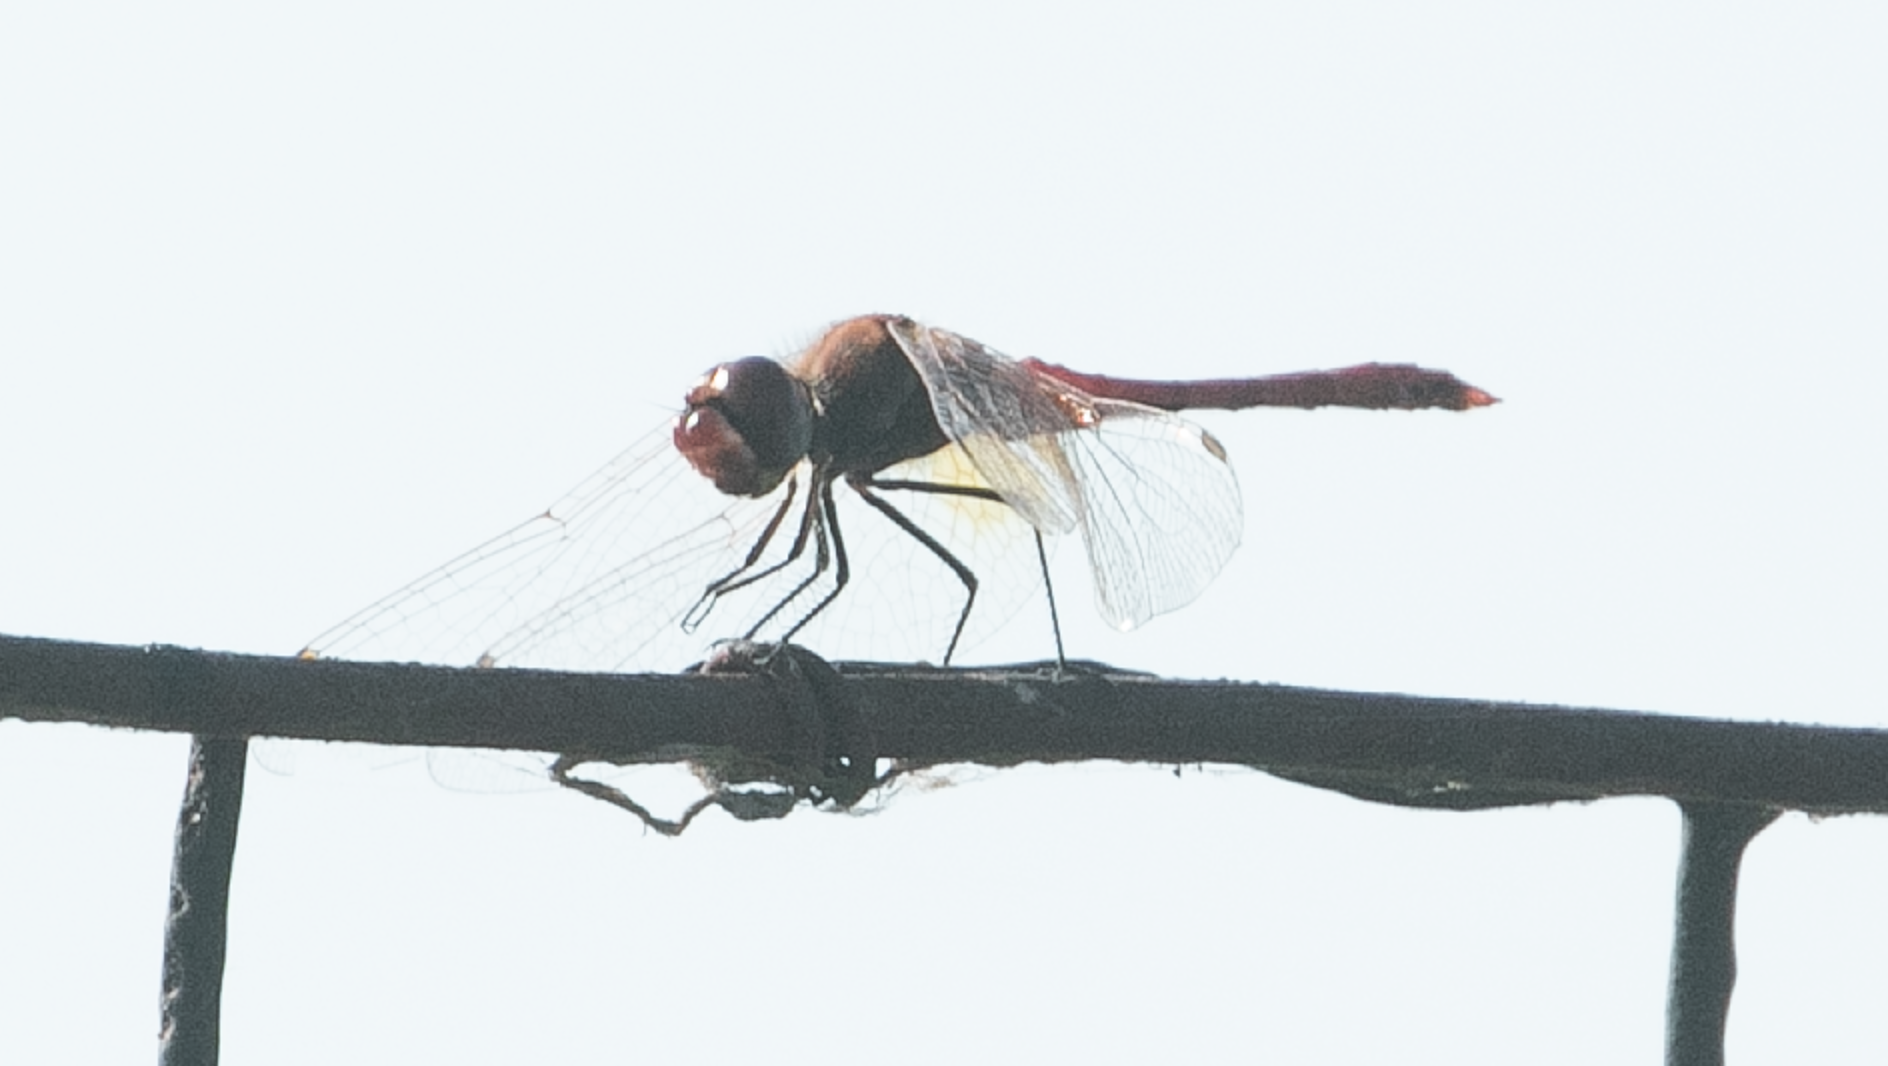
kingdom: Animalia
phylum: Arthropoda
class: Insecta
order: Odonata
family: Libellulidae
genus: Sympetrum
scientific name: Sympetrum fonscolombii
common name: Red-veined darter
